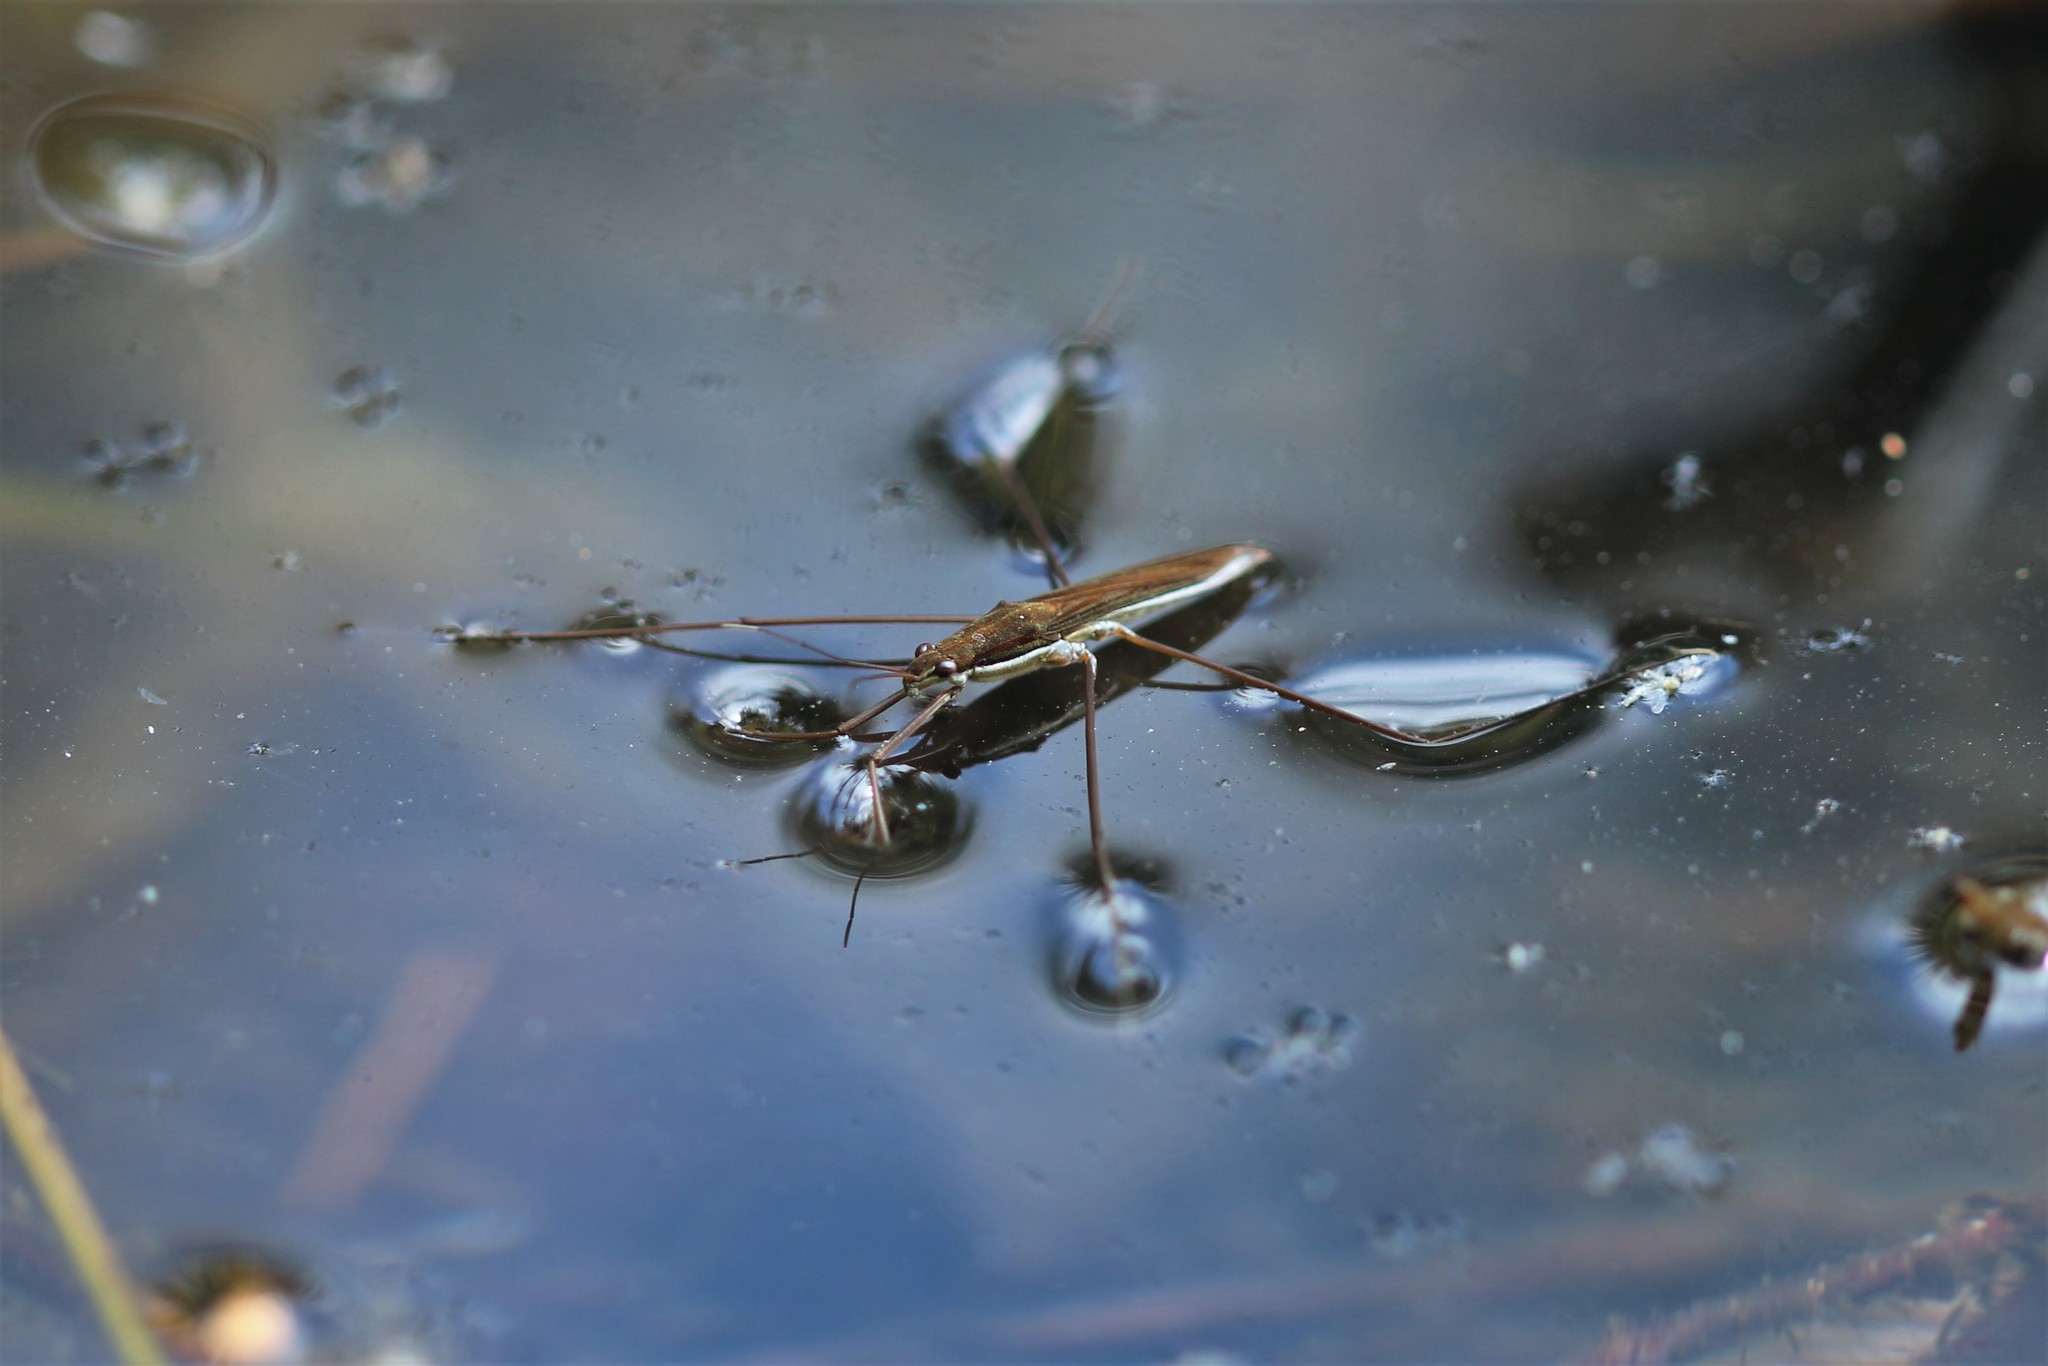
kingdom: Animalia
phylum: Arthropoda
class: Insecta
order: Hemiptera
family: Gerridae
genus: Limnoporus
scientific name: Limnoporus notabilis
